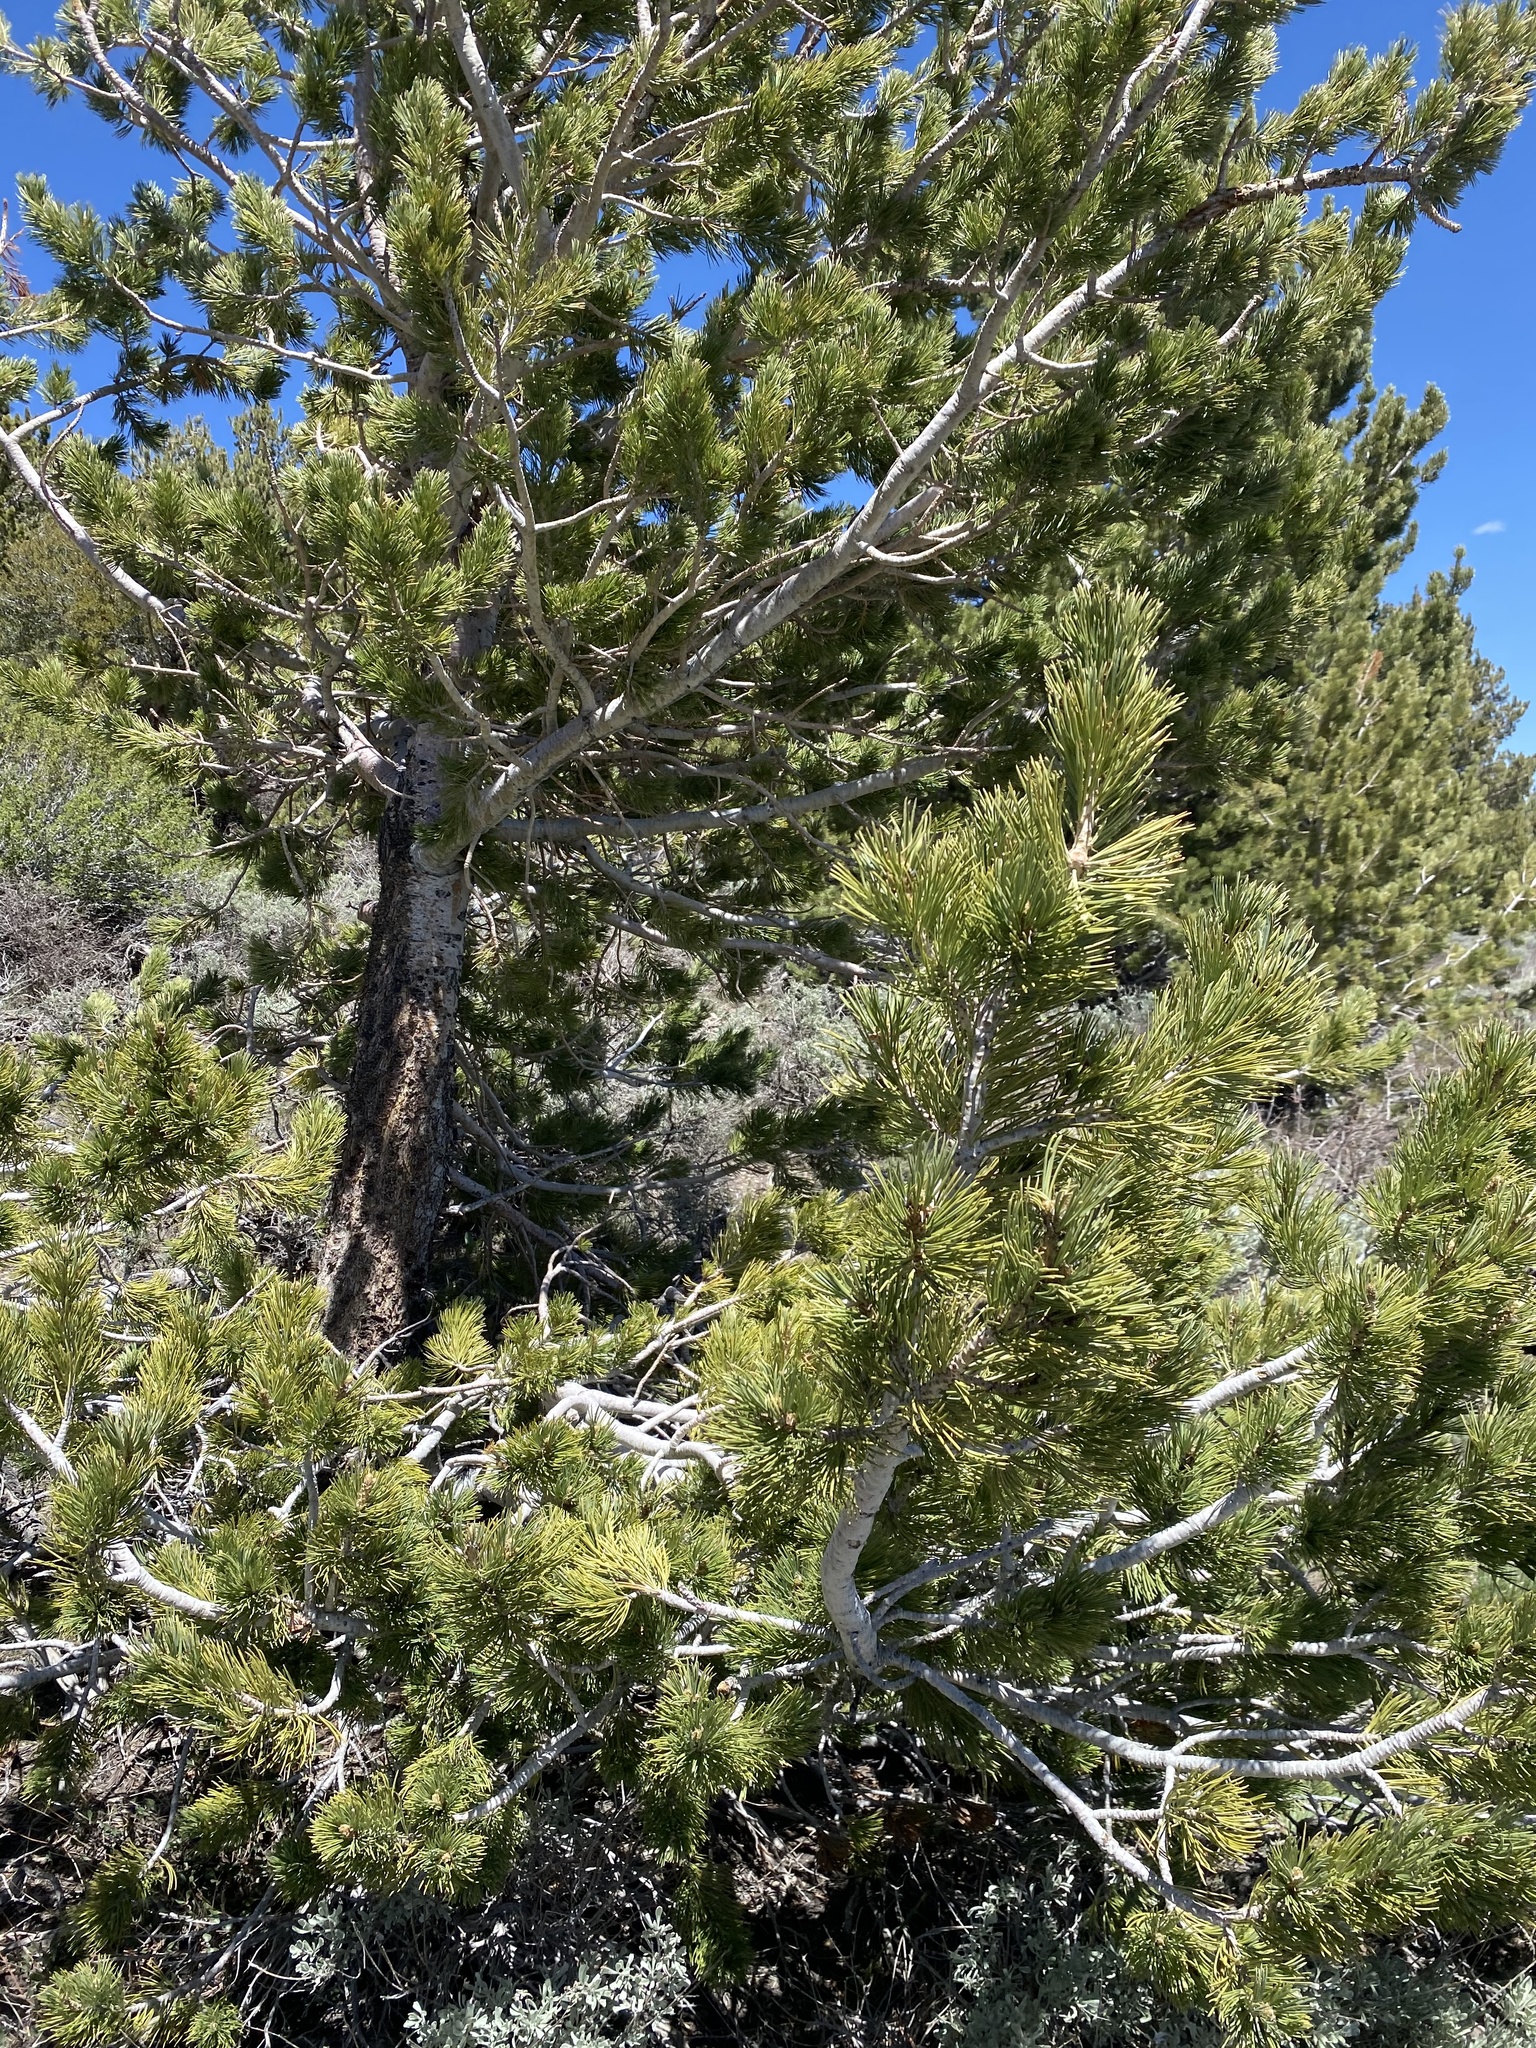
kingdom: Plantae
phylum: Tracheophyta
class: Pinopsida
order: Pinales
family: Pinaceae
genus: Pinus
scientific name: Pinus flexilis
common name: Limber pine
